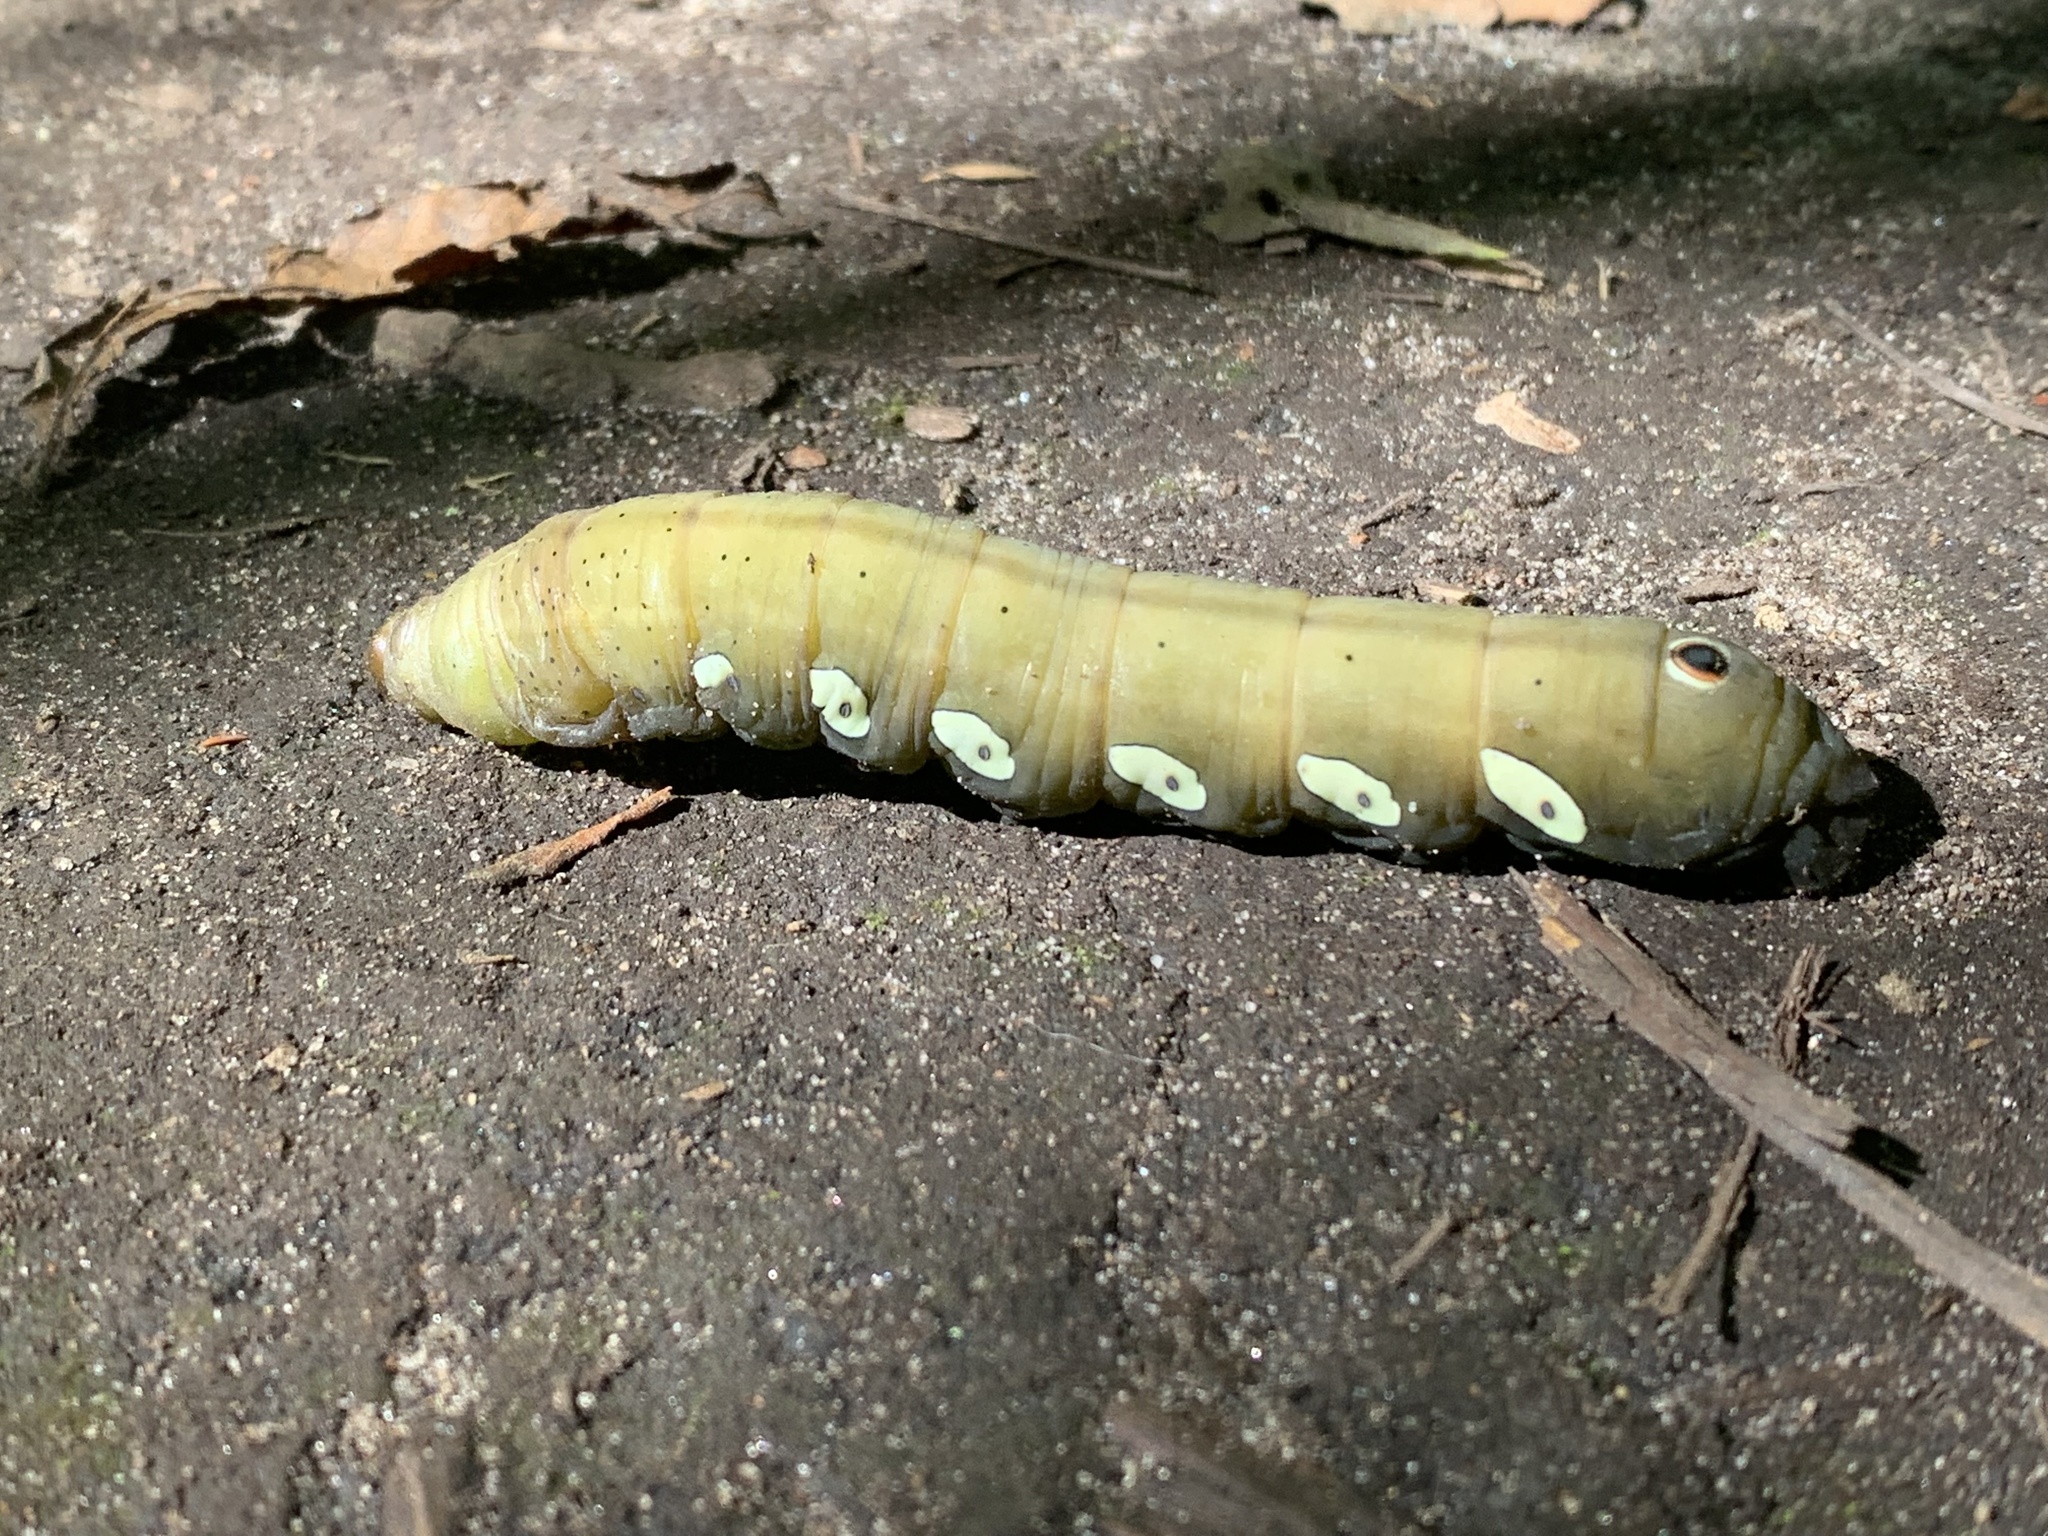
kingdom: Animalia
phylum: Arthropoda
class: Insecta
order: Lepidoptera
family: Sphingidae
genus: Eumorpha
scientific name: Eumorpha pandorus
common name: Pandora sphinx
